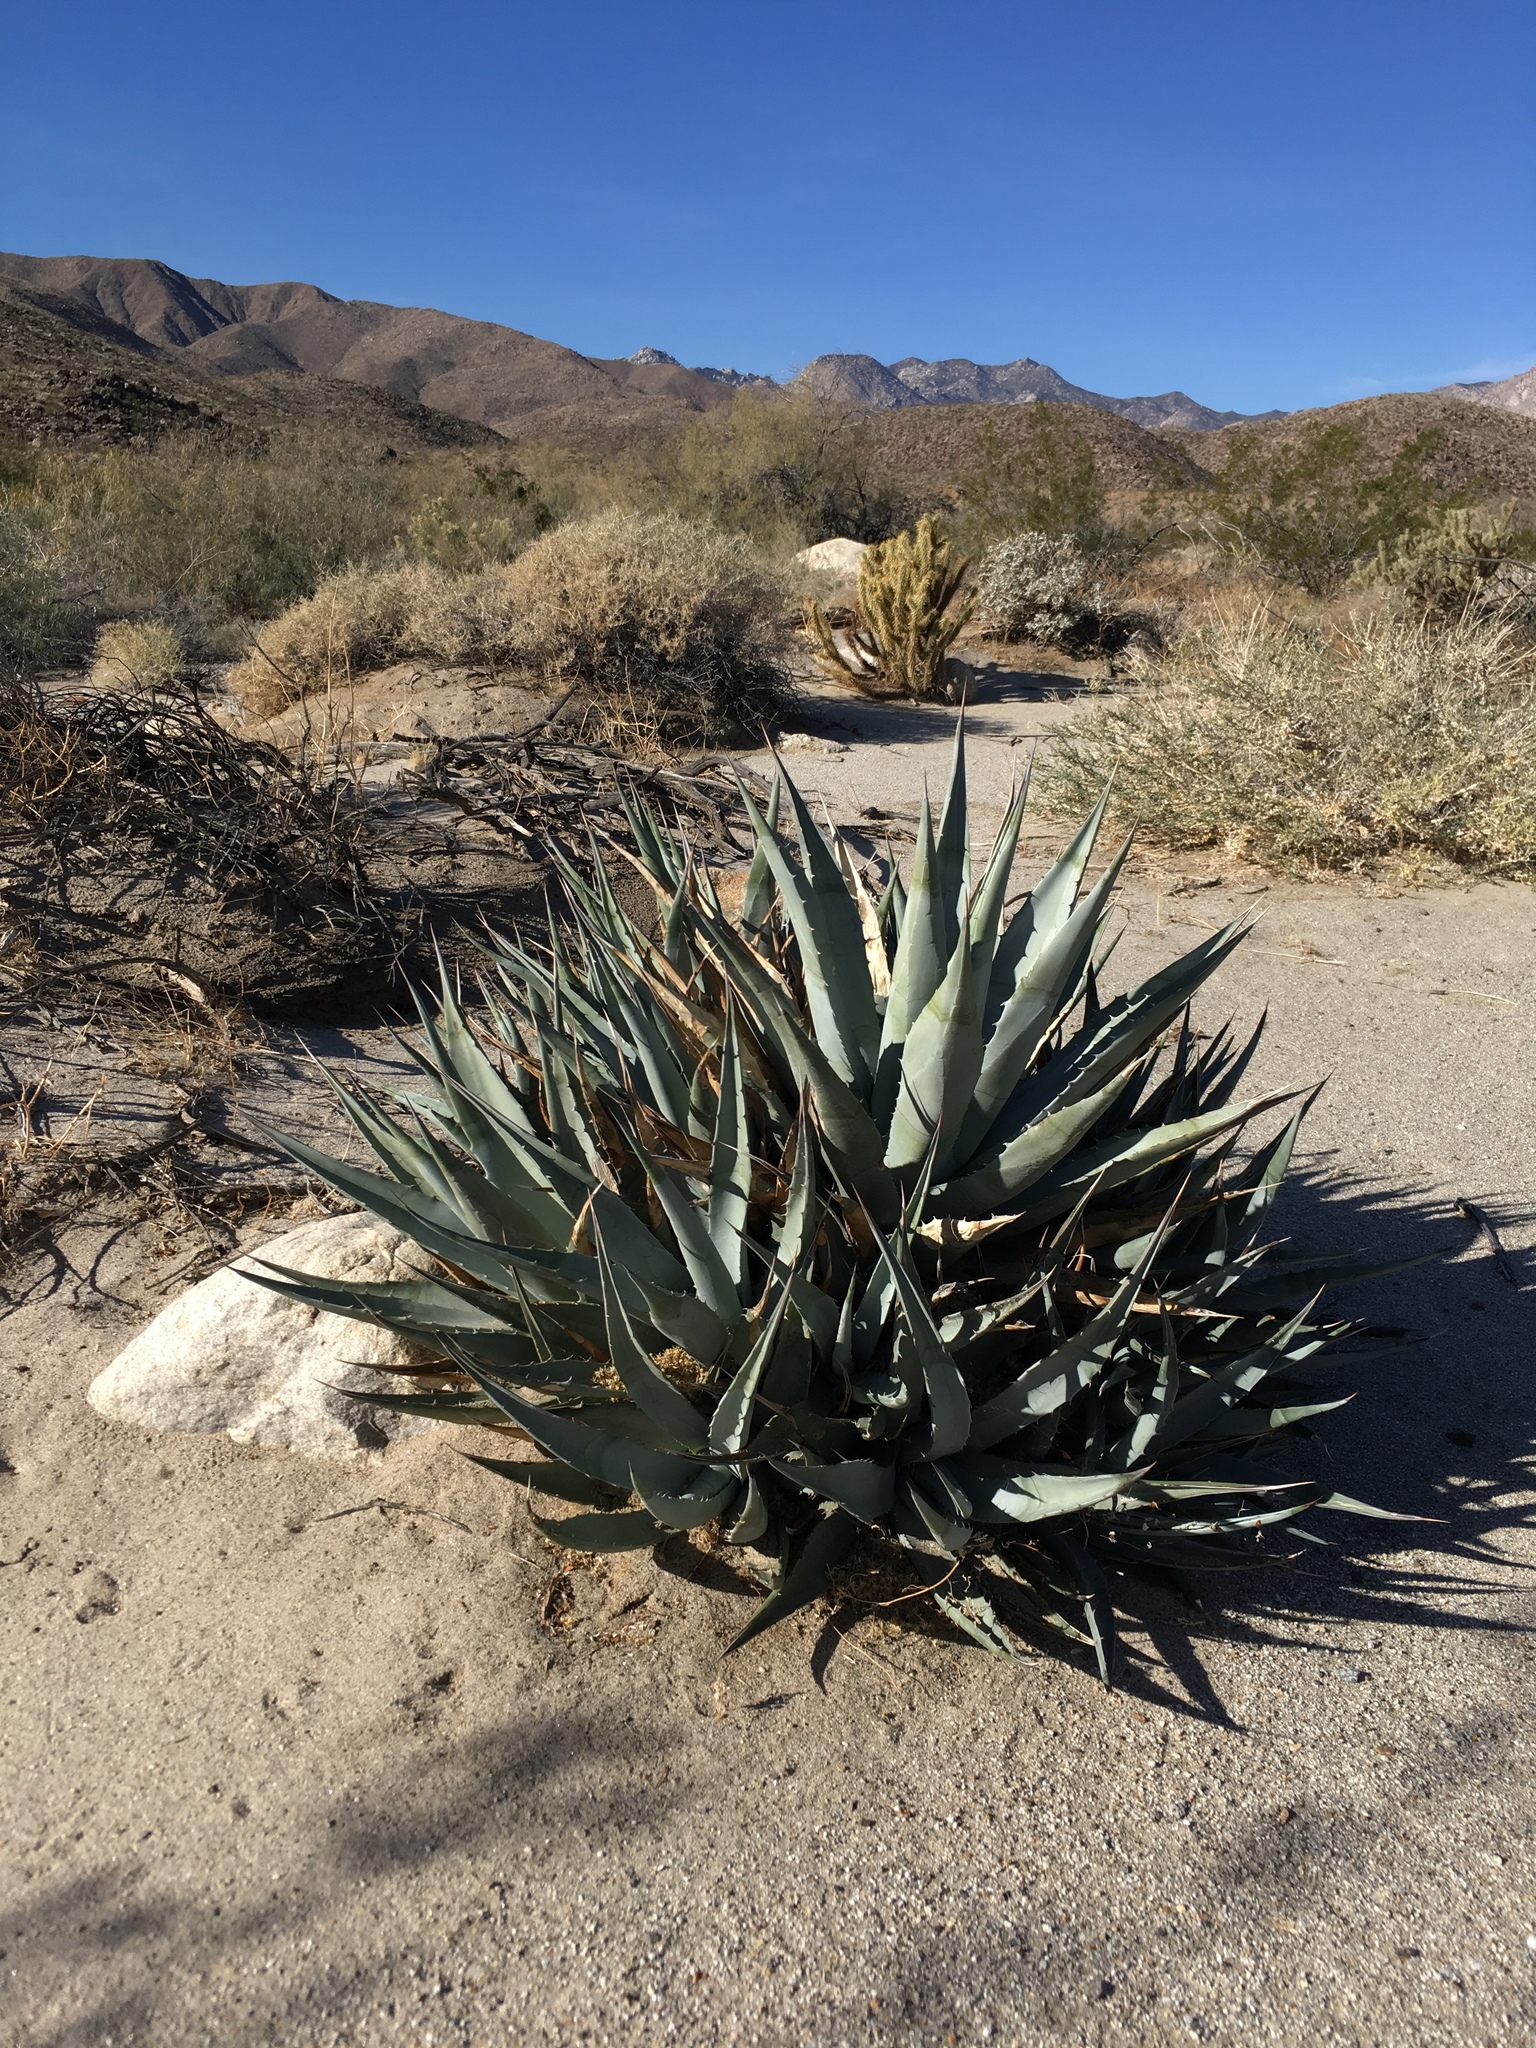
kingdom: Plantae
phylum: Tracheophyta
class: Liliopsida
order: Asparagales
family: Asparagaceae
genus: Agave
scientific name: Agave deserti
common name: Desert agave
